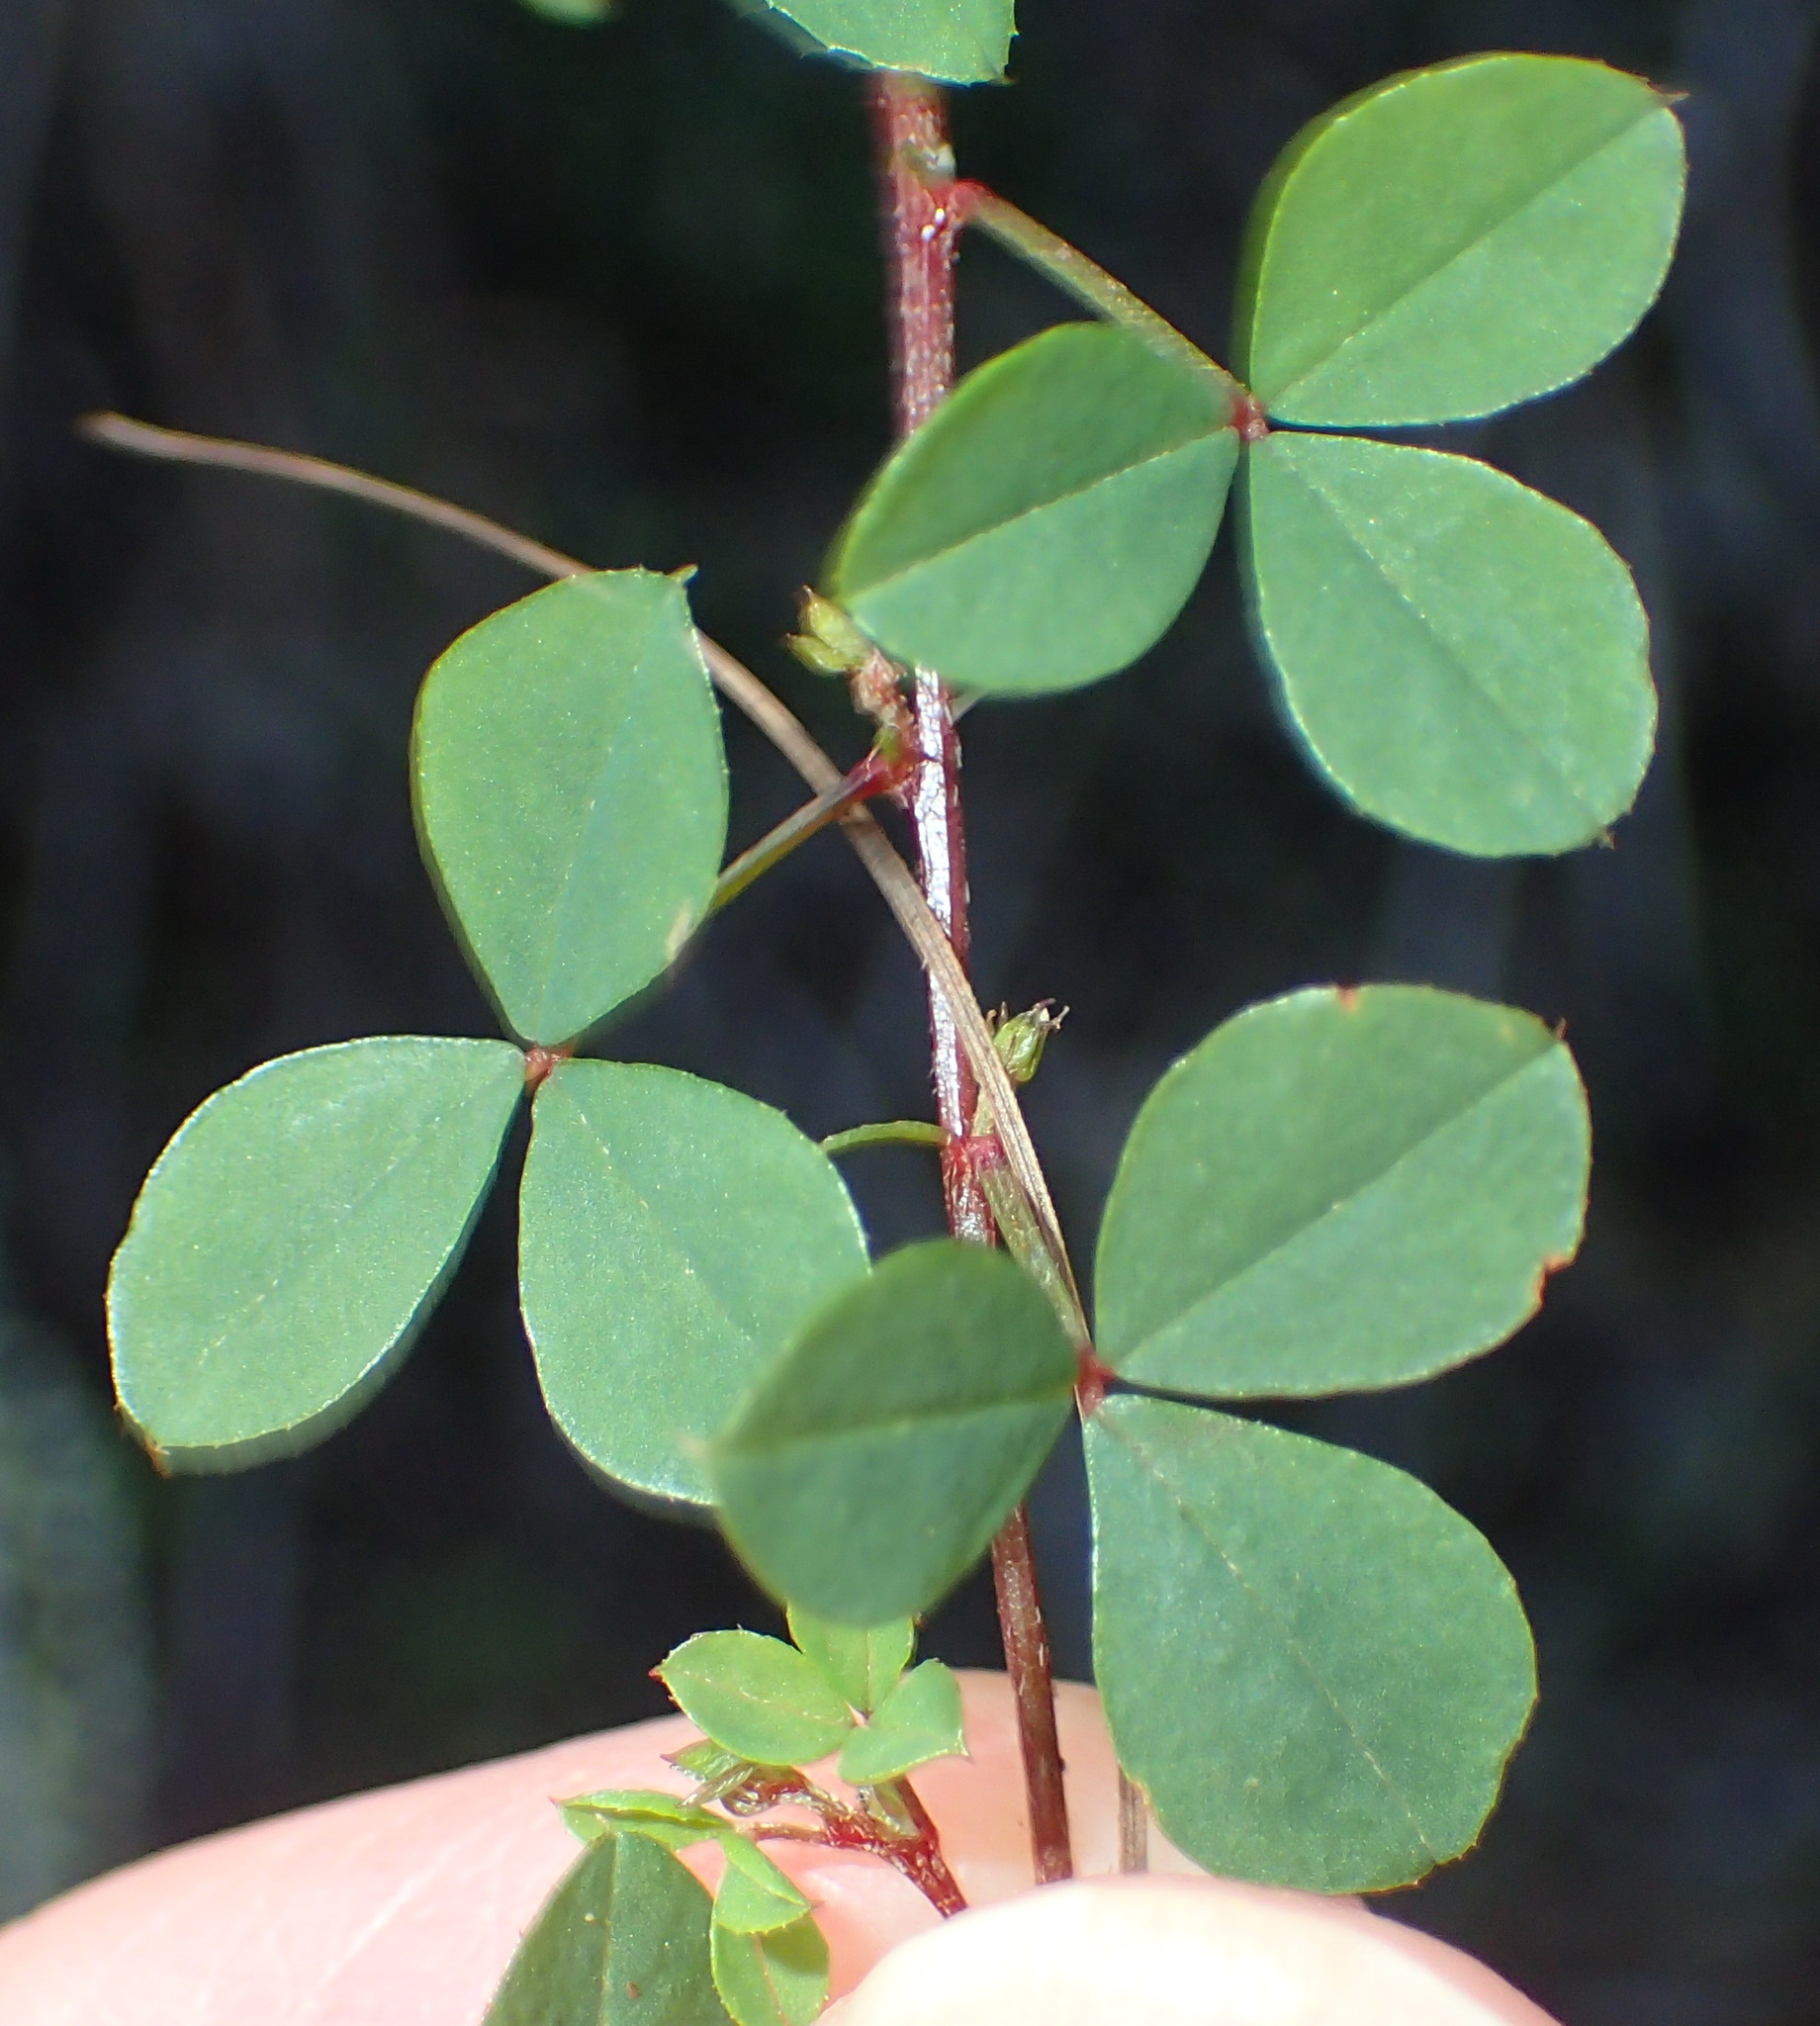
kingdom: Plantae
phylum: Tracheophyta
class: Magnoliopsida
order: Fabales
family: Fabaceae
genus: Indigofera
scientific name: Indigofera erecta
